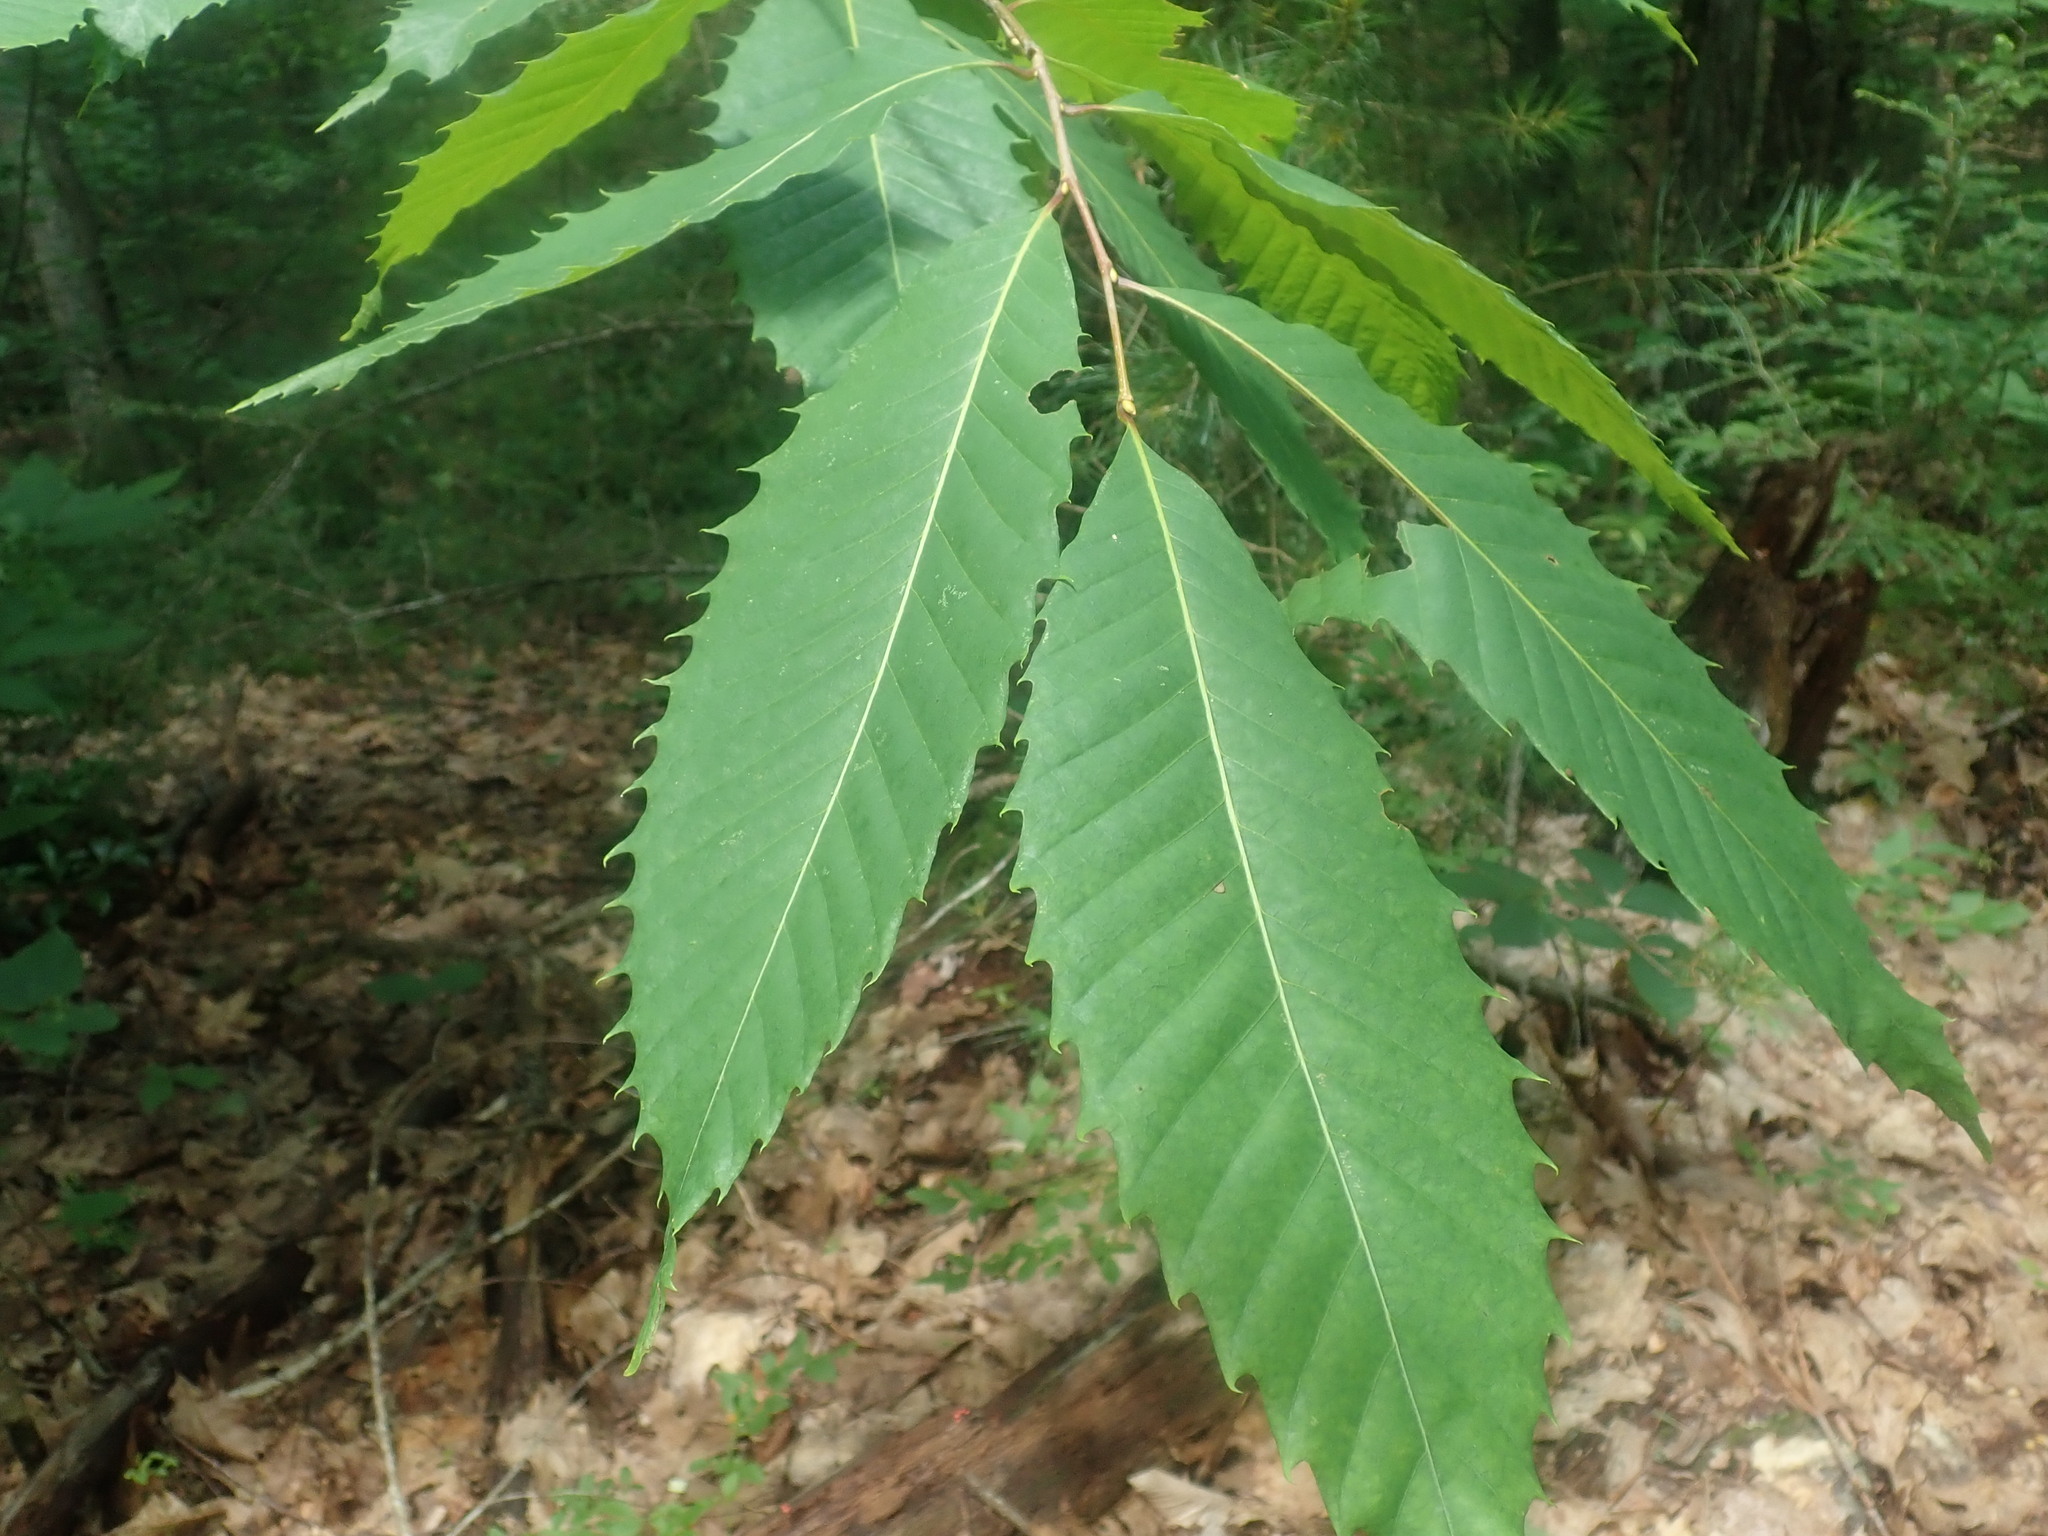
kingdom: Plantae
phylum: Tracheophyta
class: Magnoliopsida
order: Fagales
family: Fagaceae
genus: Castanea
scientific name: Castanea dentata
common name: American chestnut
